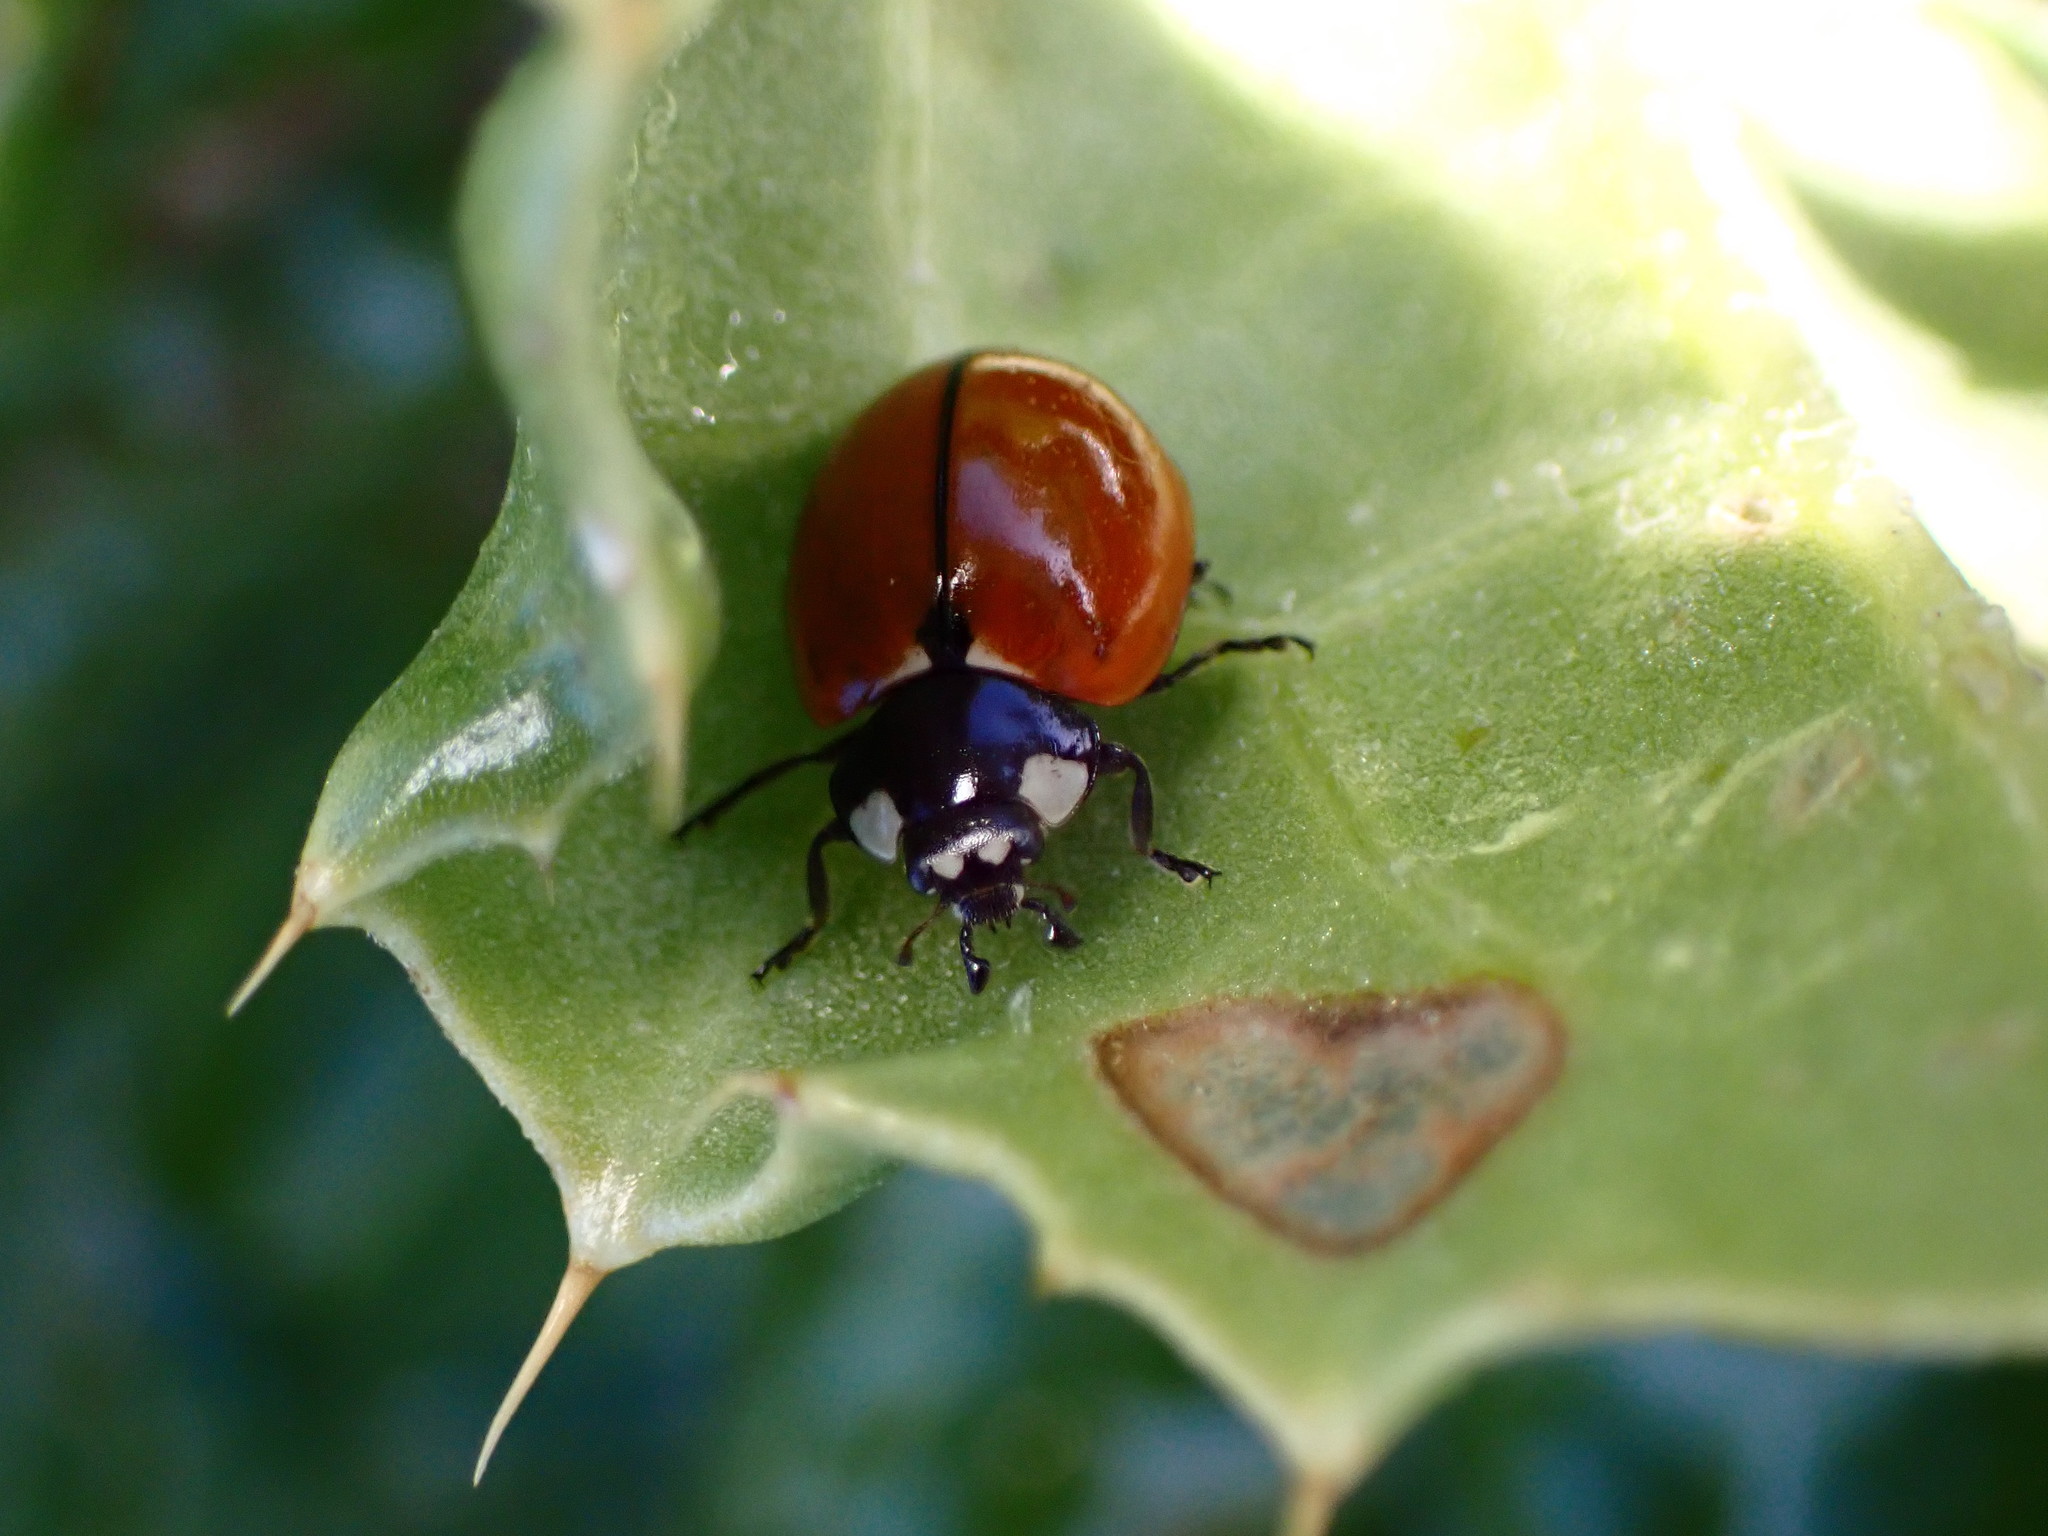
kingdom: Animalia
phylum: Arthropoda
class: Insecta
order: Coleoptera
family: Coccinellidae
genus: Coccinella
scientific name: Coccinella californica
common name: Lady beetle
